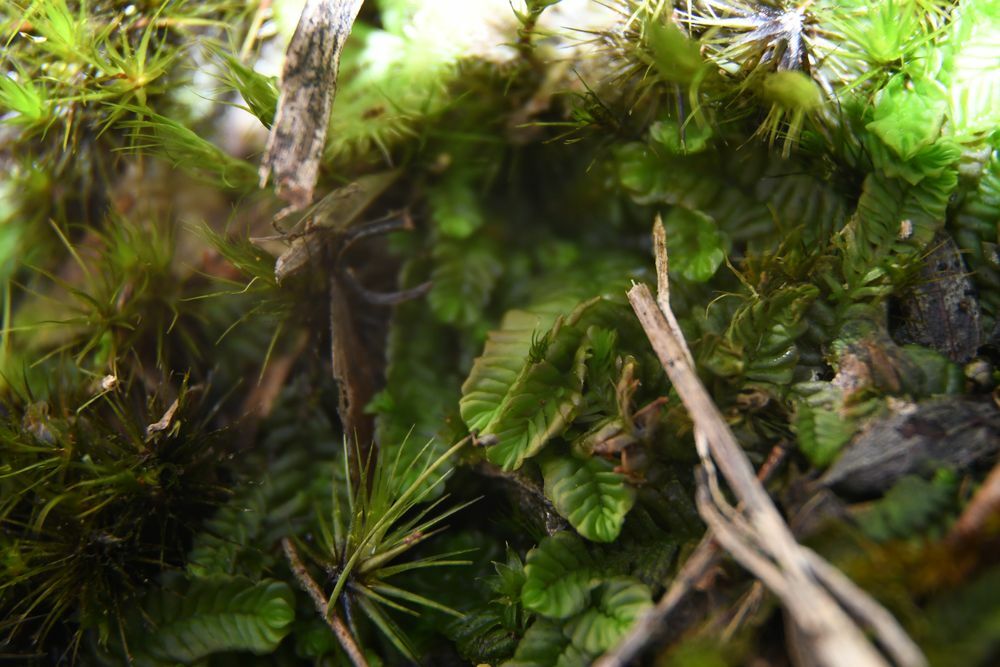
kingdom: Plantae
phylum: Marchantiophyta
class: Jungermanniopsida
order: Jungermanniales
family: Acrobolbaceae
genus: Lethocolea
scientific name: Lethocolea pansa
